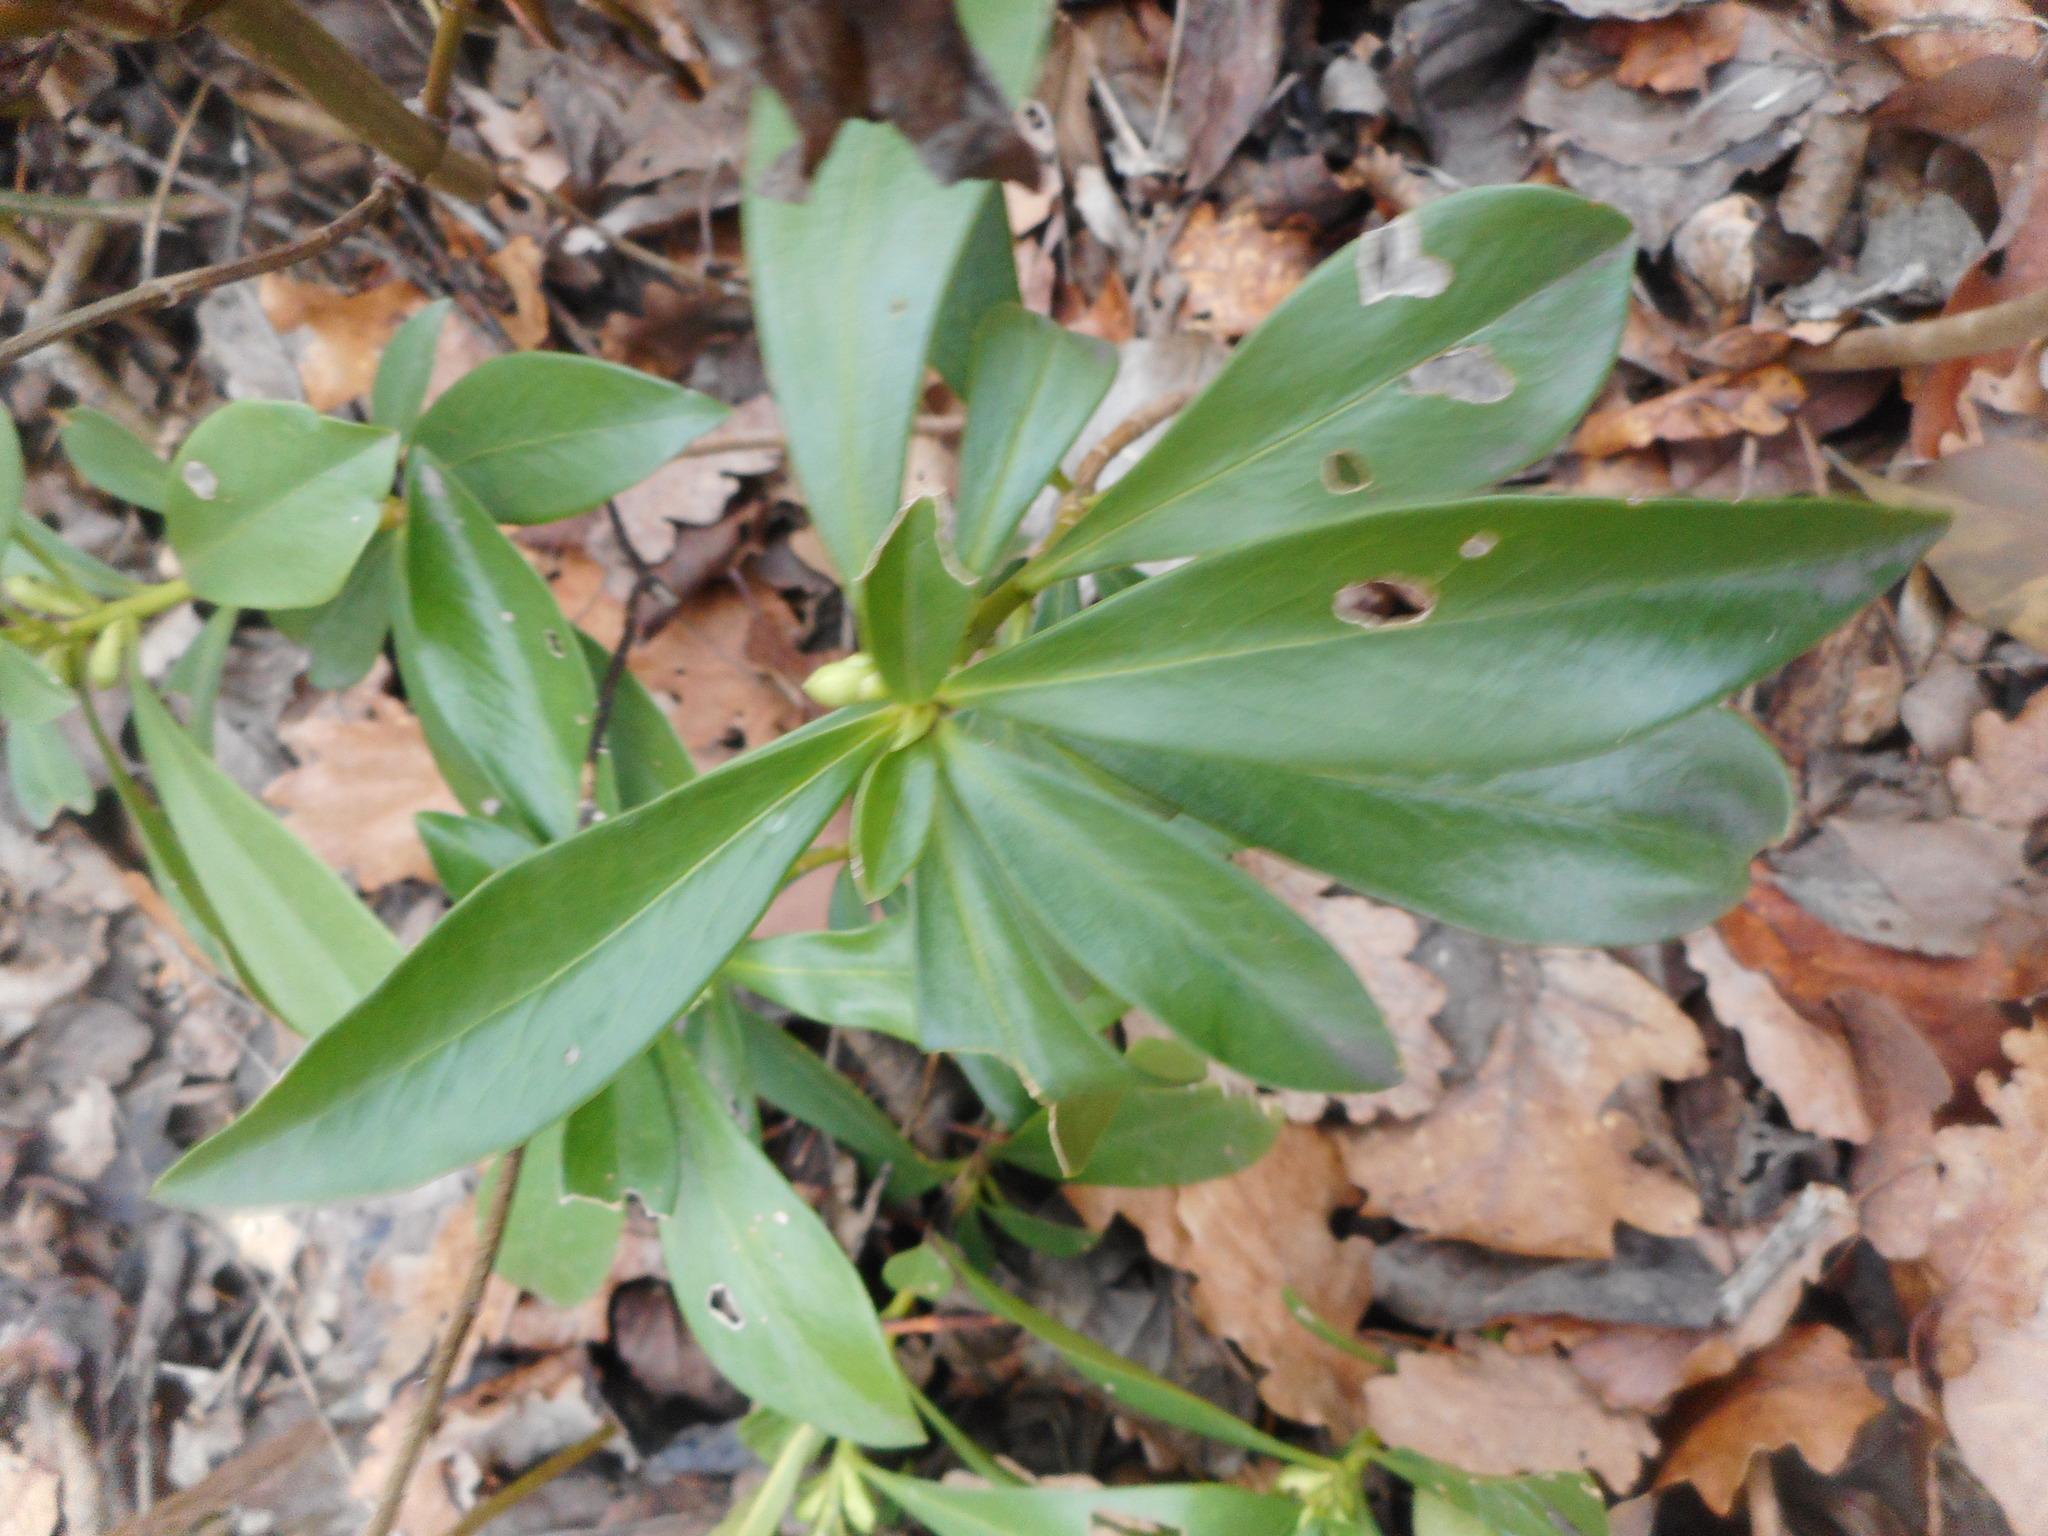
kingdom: Plantae
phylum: Tracheophyta
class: Magnoliopsida
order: Malvales
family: Thymelaeaceae
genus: Daphne
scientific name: Daphne laureola
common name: Spurge-laurel
